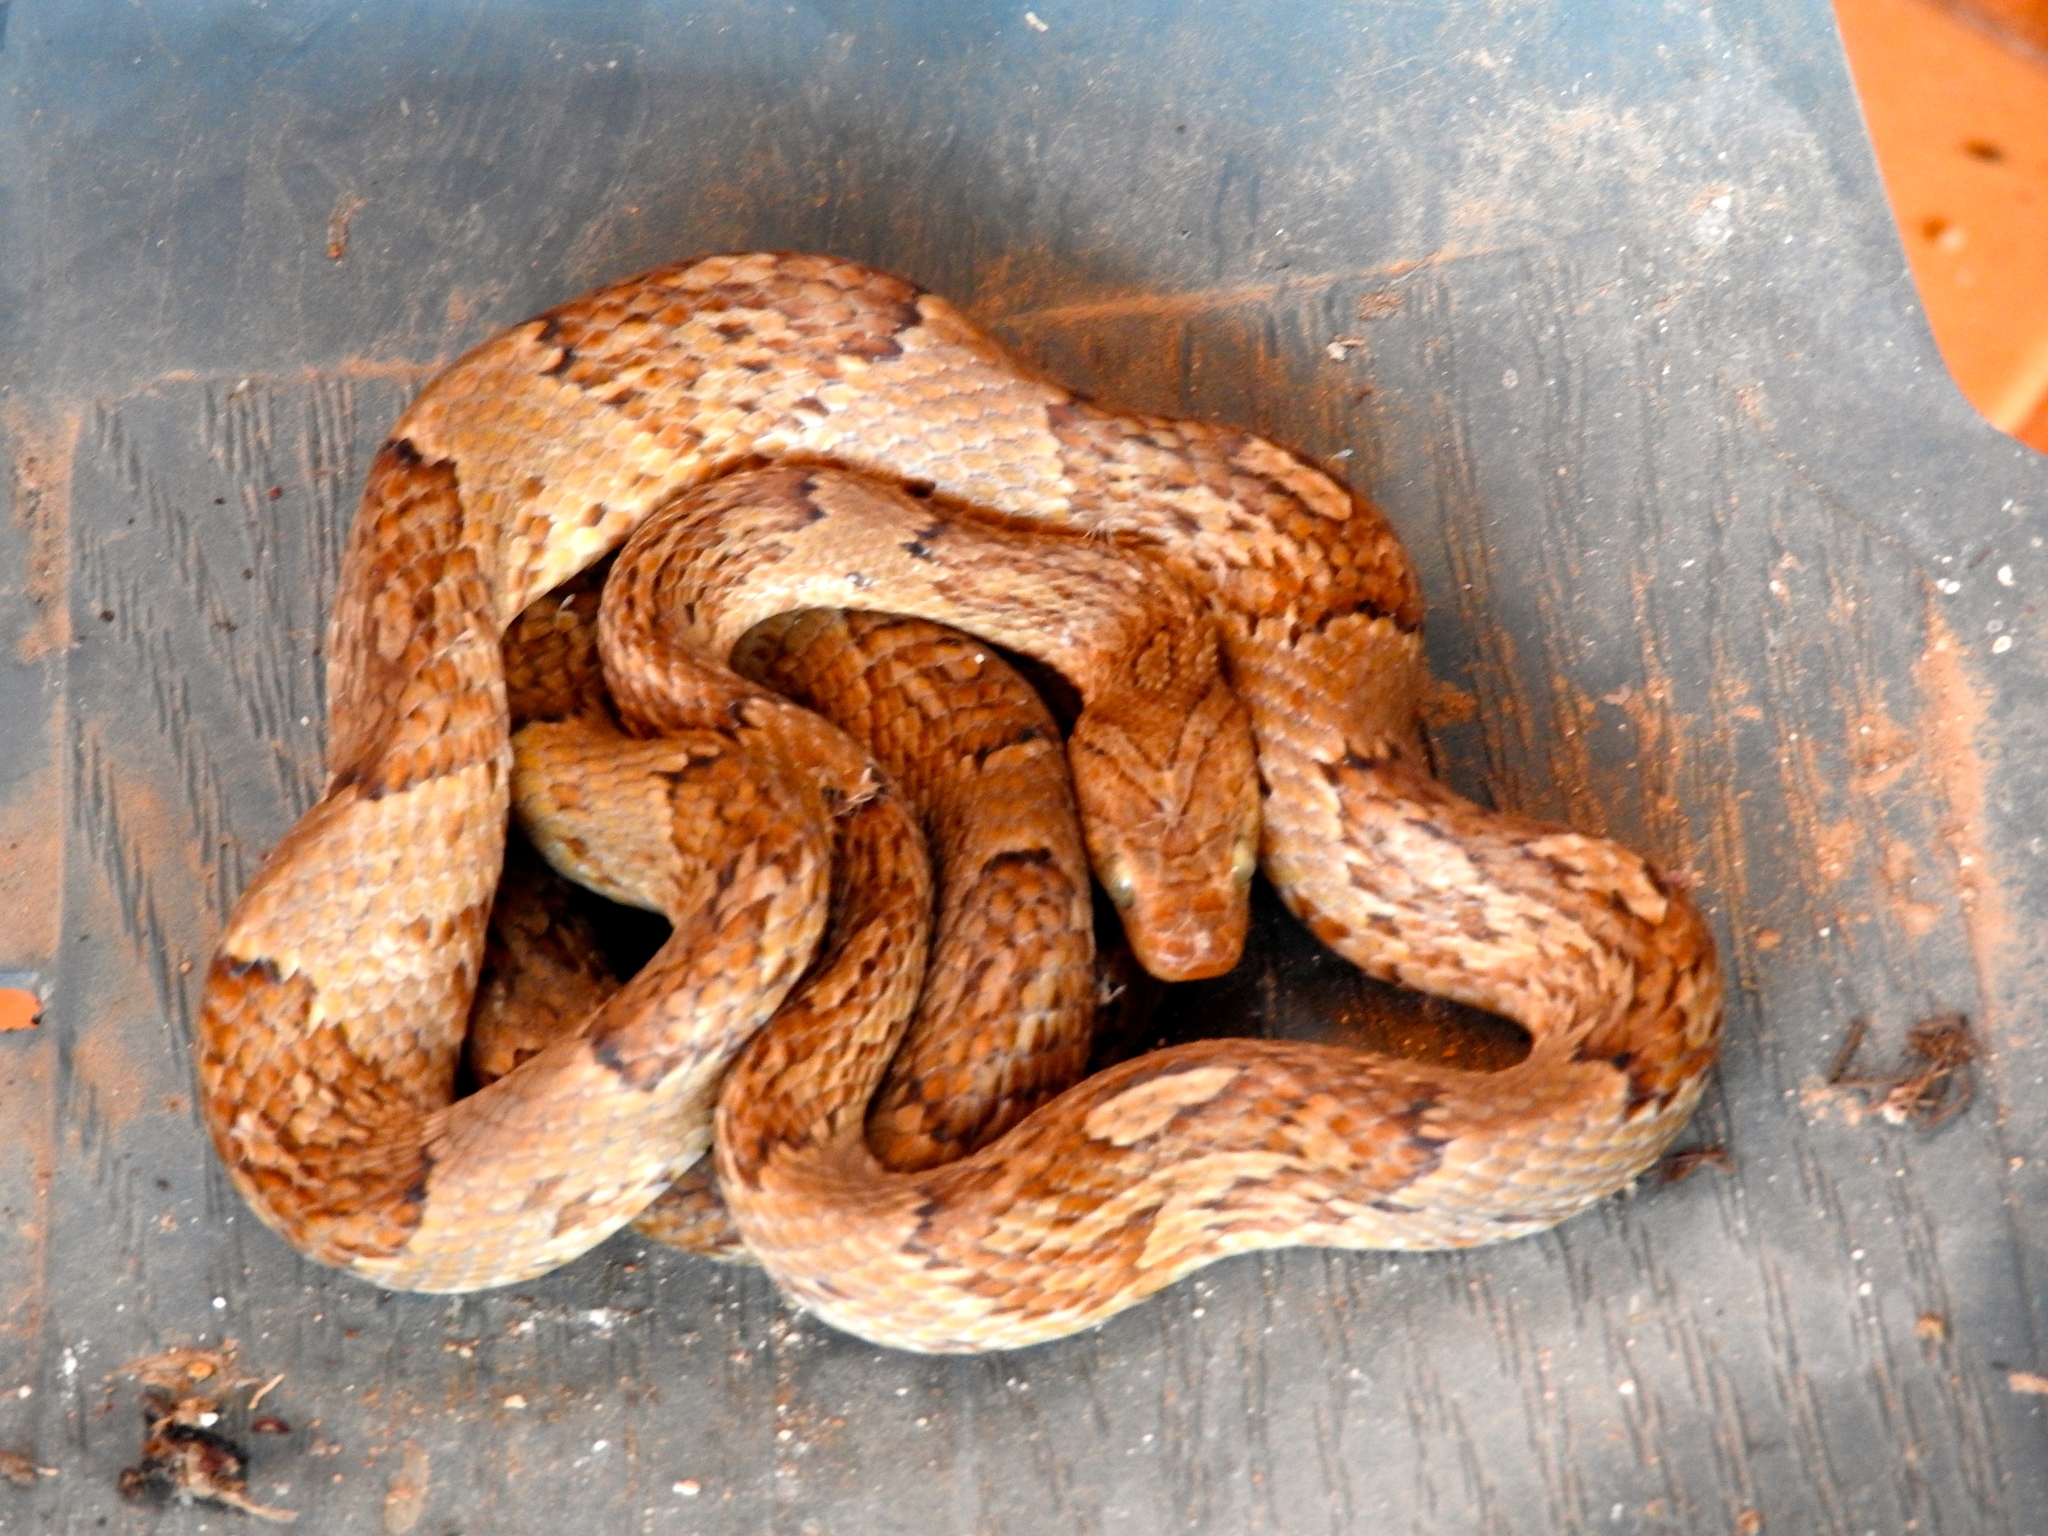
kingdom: Animalia
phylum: Chordata
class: Squamata
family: Colubridae
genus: Trimorphodon
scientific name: Trimorphodon paucimaculatus
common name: Sinaloan lyresnake
